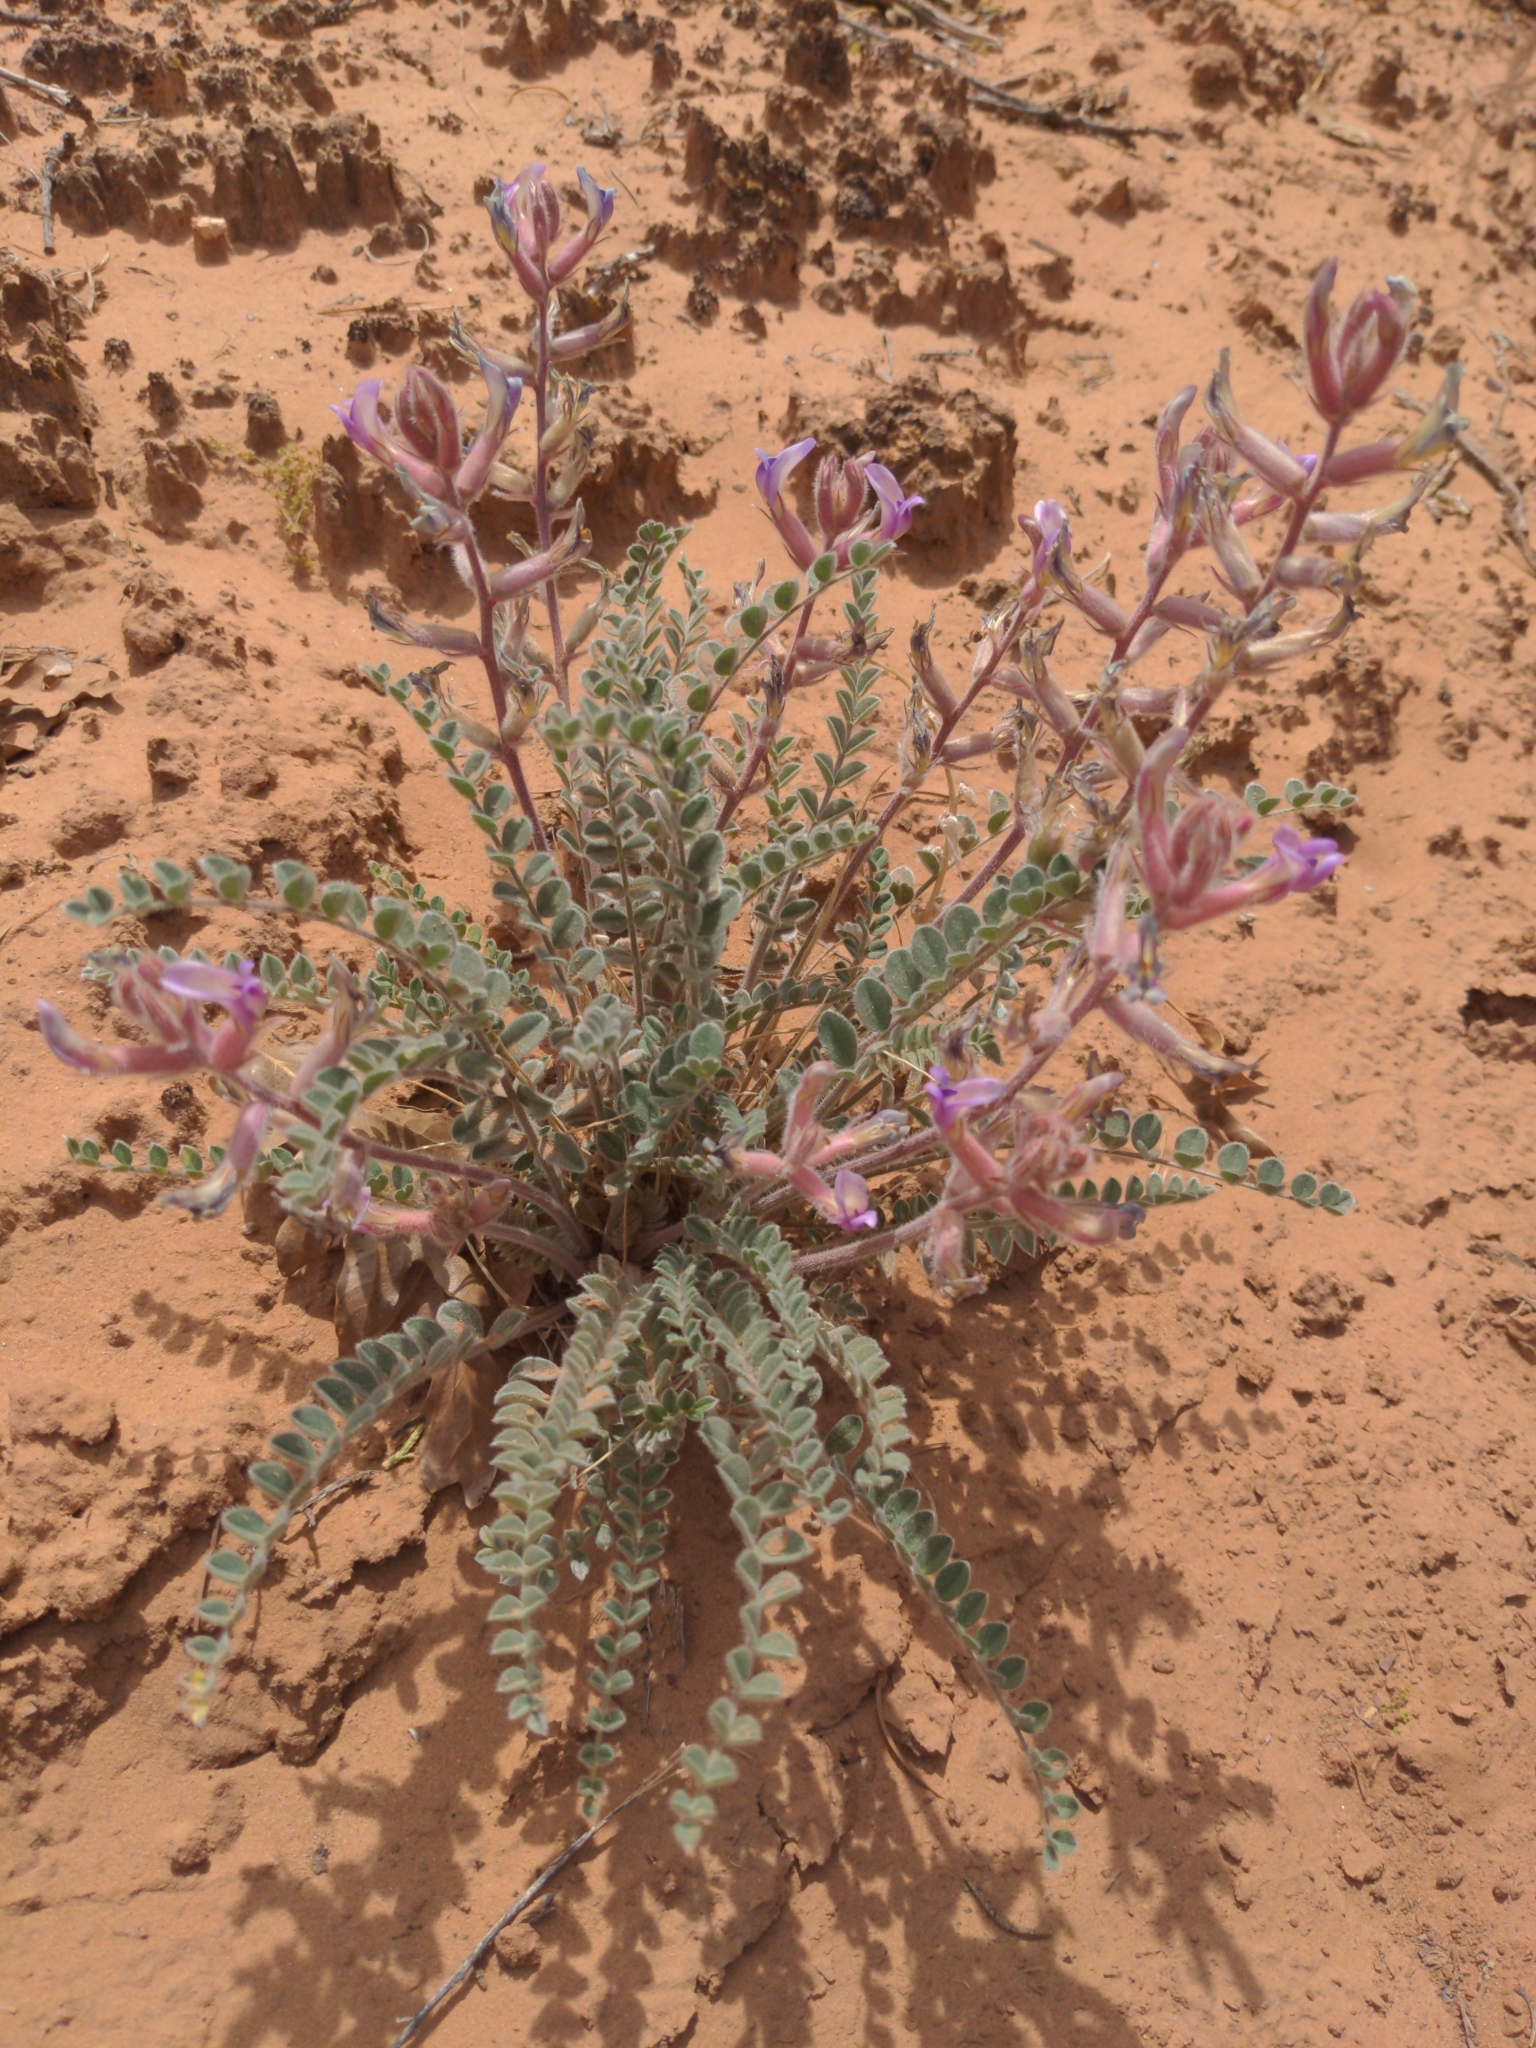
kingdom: Plantae
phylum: Tracheophyta
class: Magnoliopsida
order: Fabales
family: Fabaceae
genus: Astragalus
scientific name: Astragalus mollissimus
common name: Woolly locoweed
